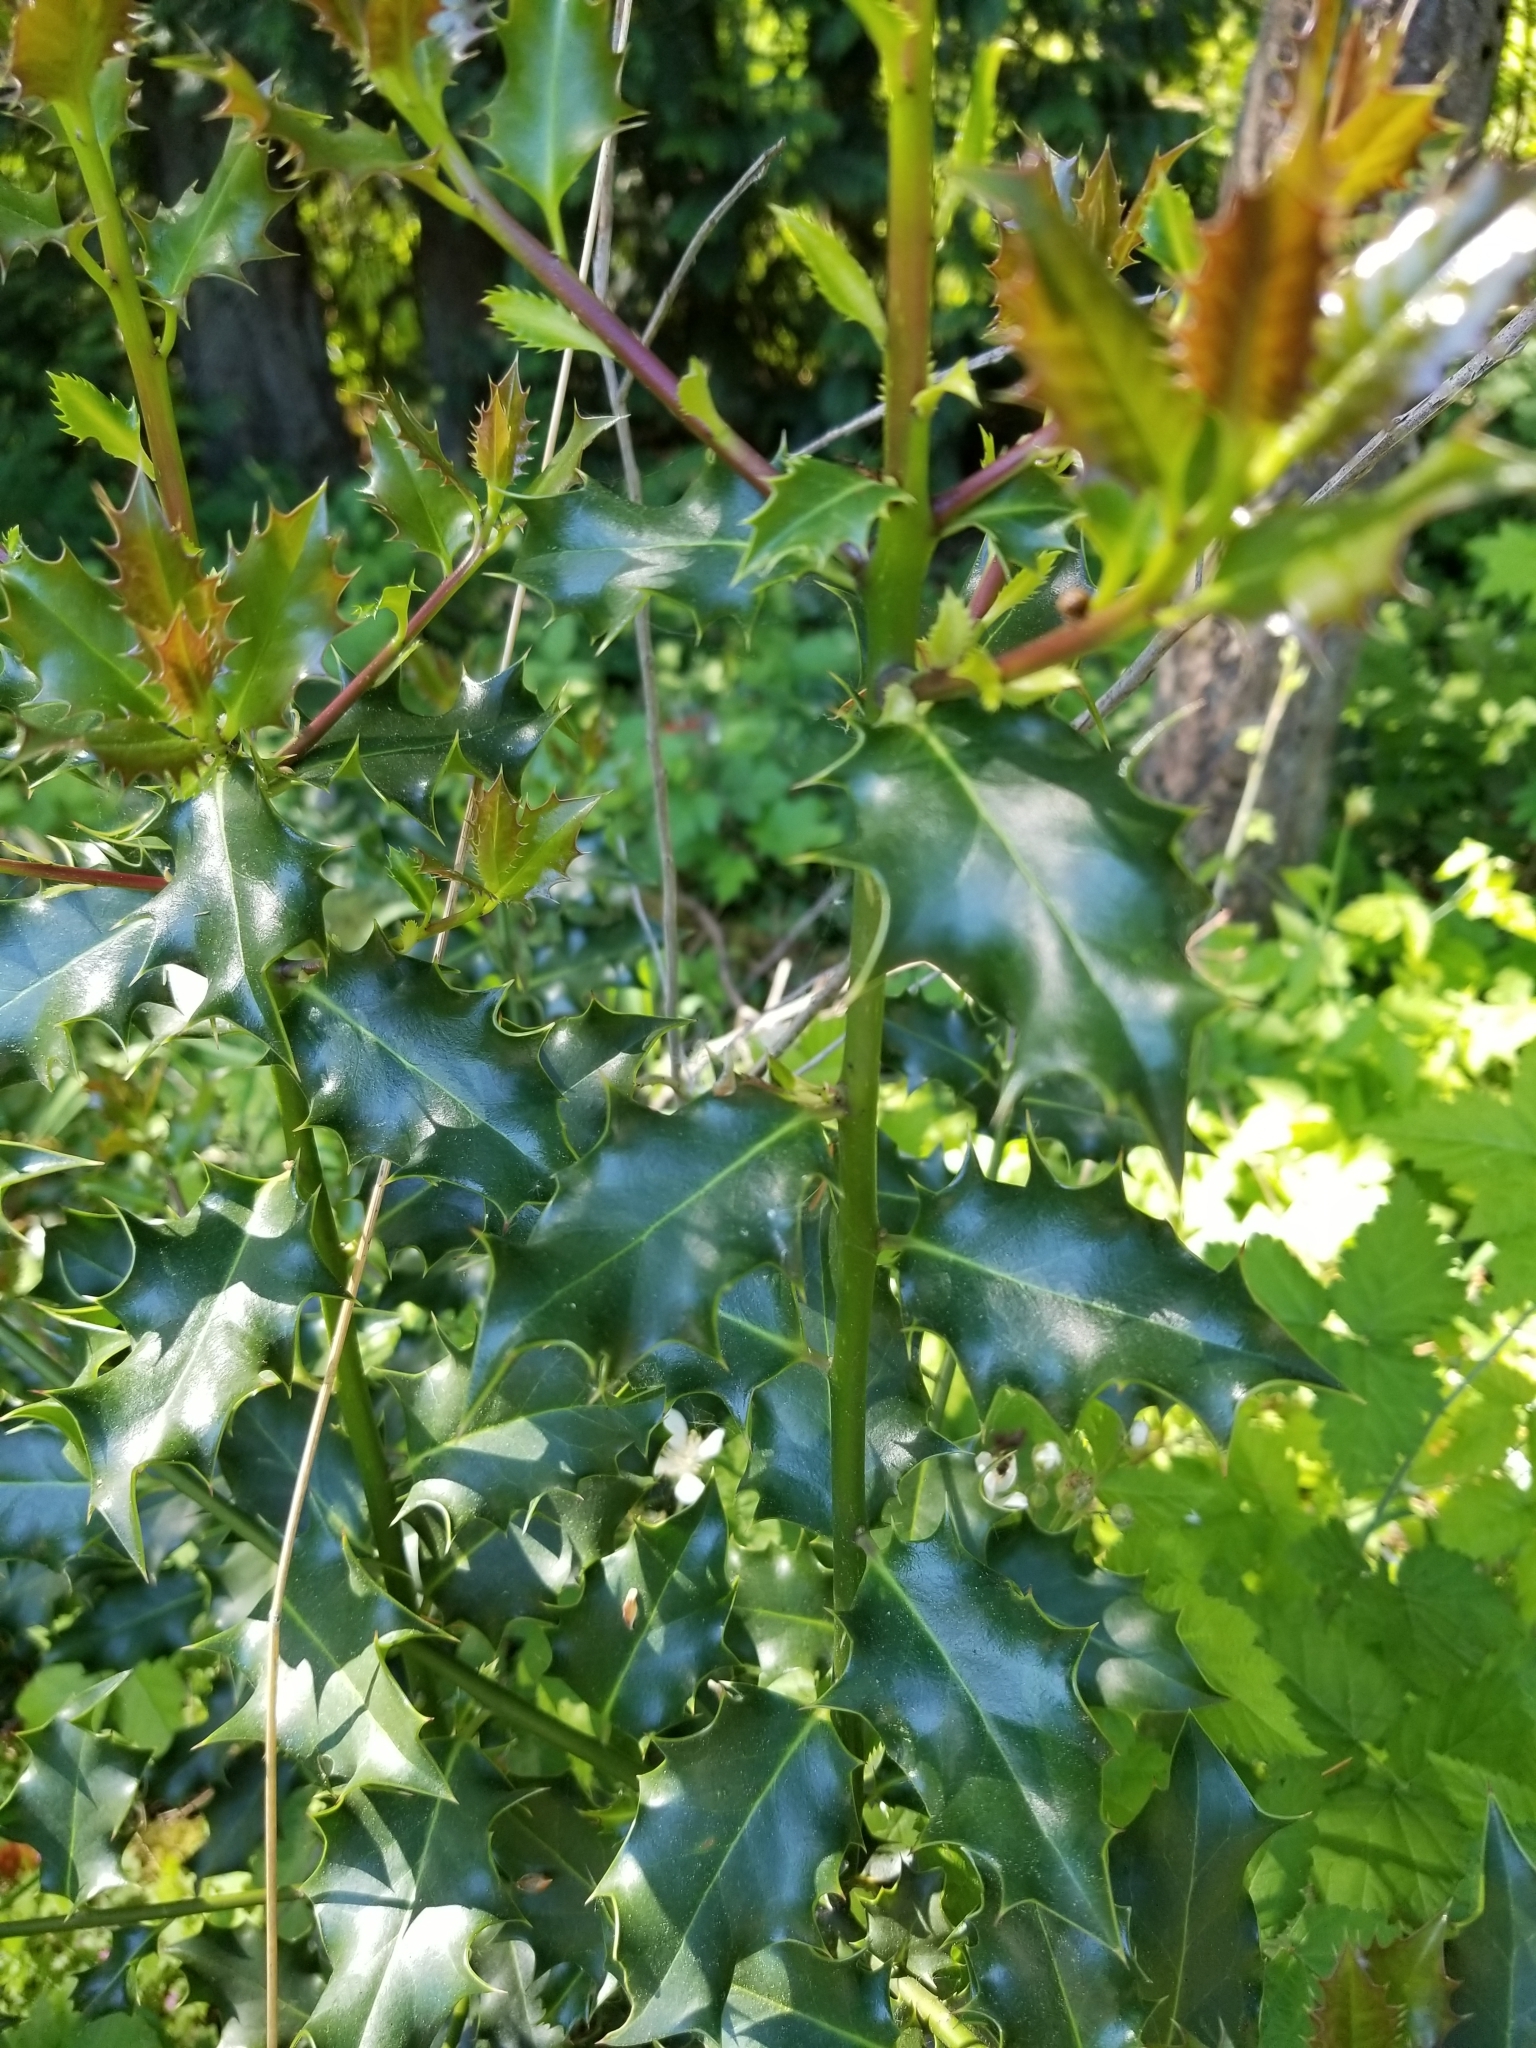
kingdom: Plantae
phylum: Tracheophyta
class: Magnoliopsida
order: Aquifoliales
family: Aquifoliaceae
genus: Ilex
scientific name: Ilex aquifolium
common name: English holly
